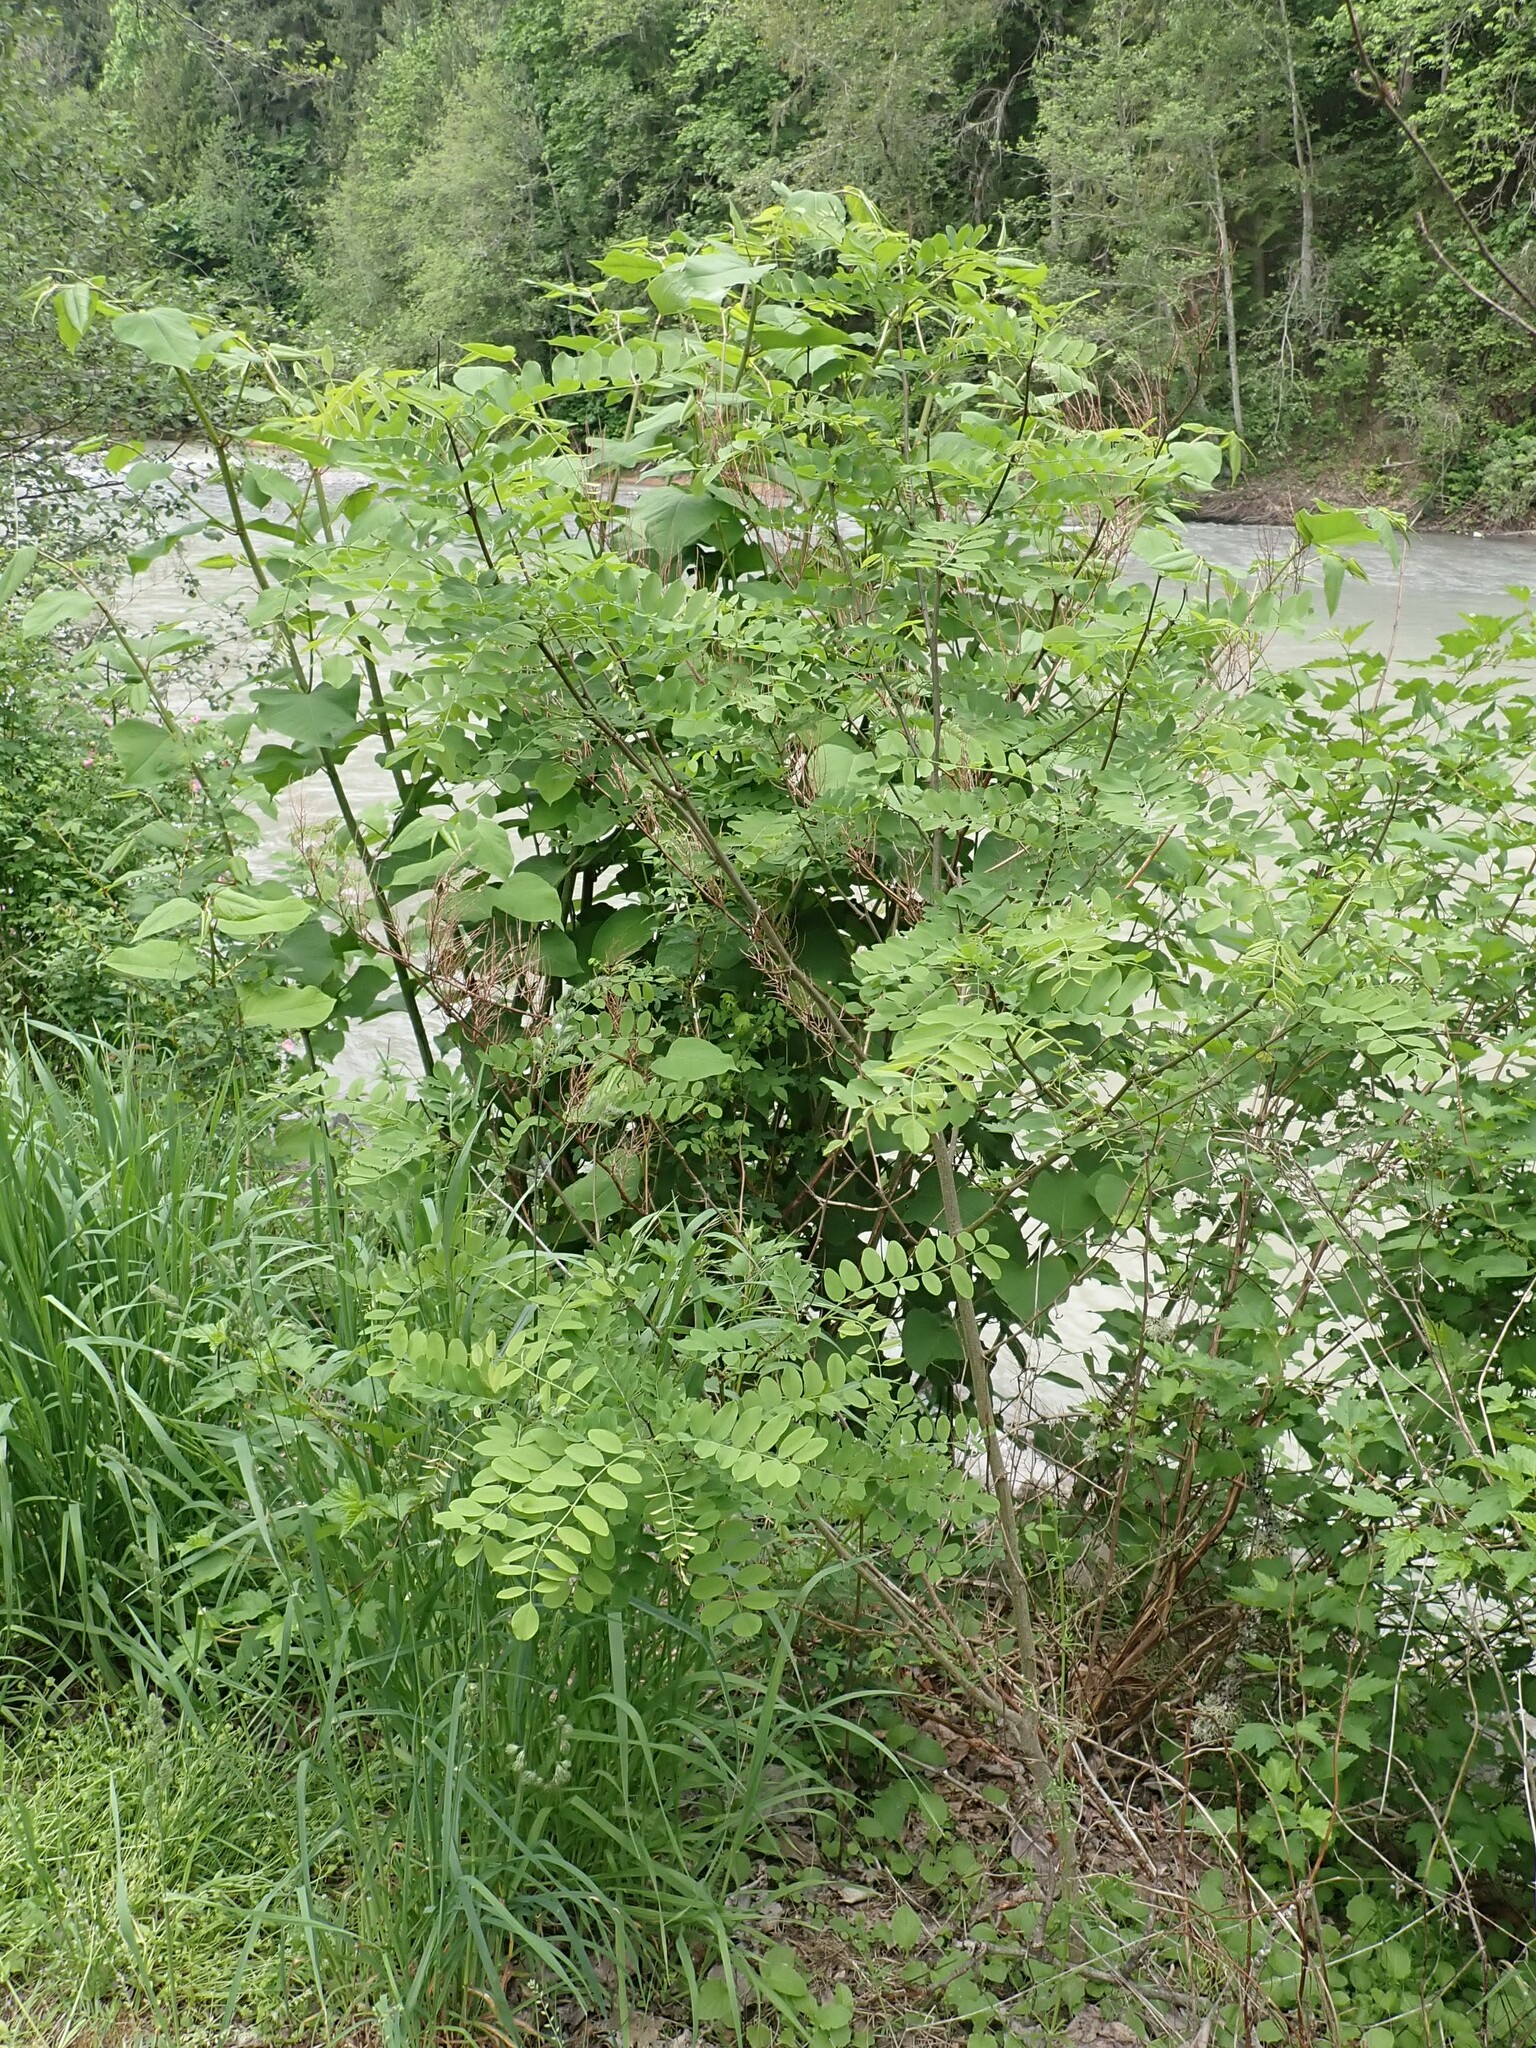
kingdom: Plantae
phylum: Tracheophyta
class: Magnoliopsida
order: Fabales
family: Fabaceae
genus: Robinia
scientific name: Robinia pseudoacacia
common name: Black locust
